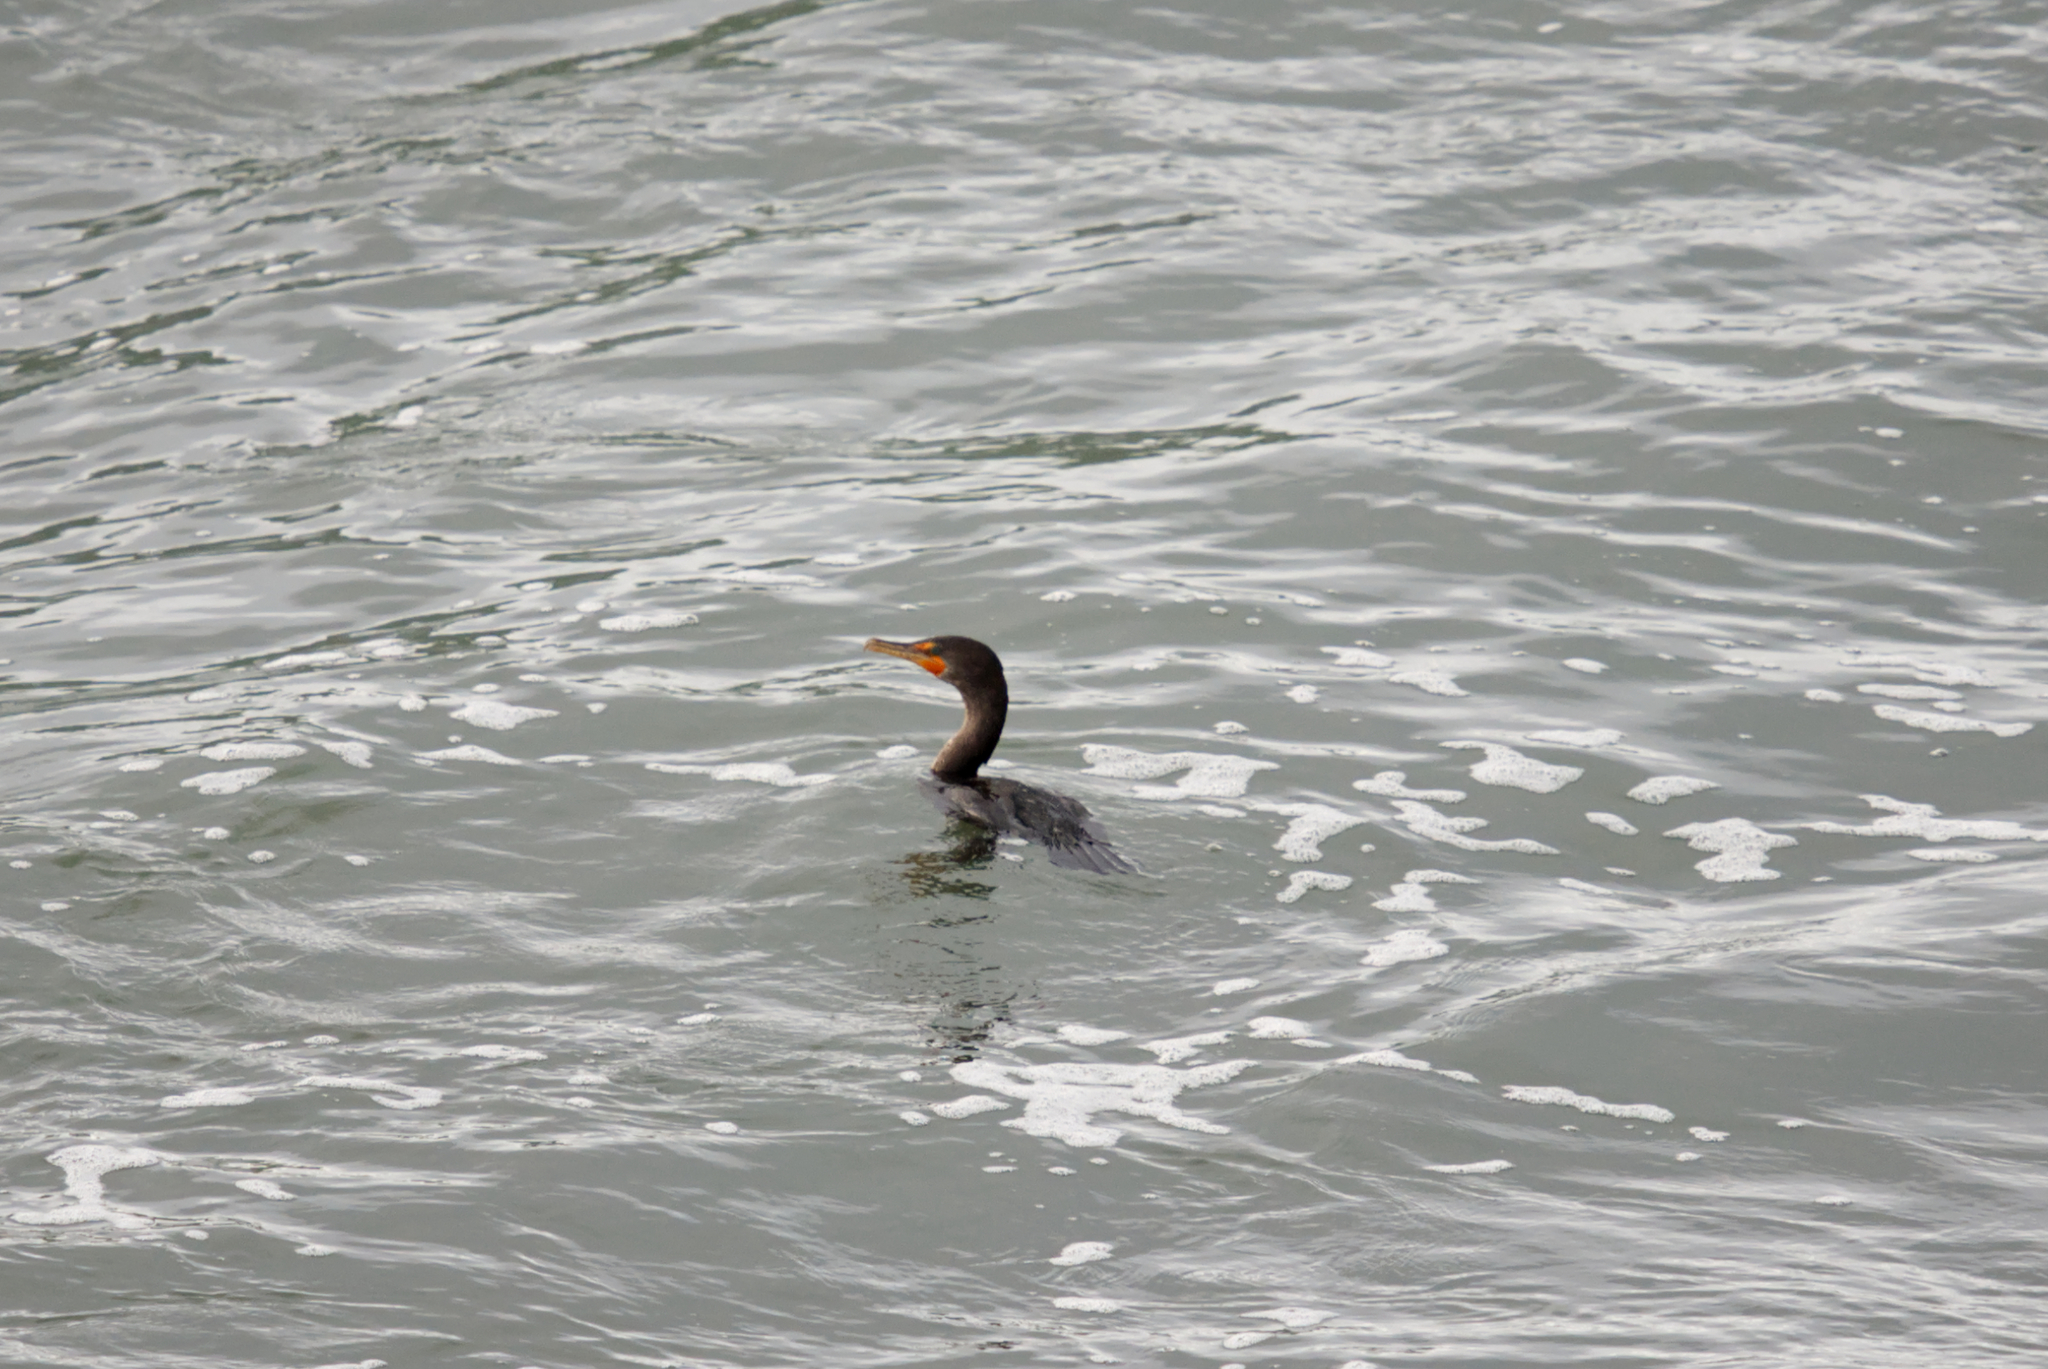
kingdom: Animalia
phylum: Chordata
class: Aves
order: Suliformes
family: Phalacrocoracidae
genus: Phalacrocorax
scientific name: Phalacrocorax auritus
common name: Double-crested cormorant
